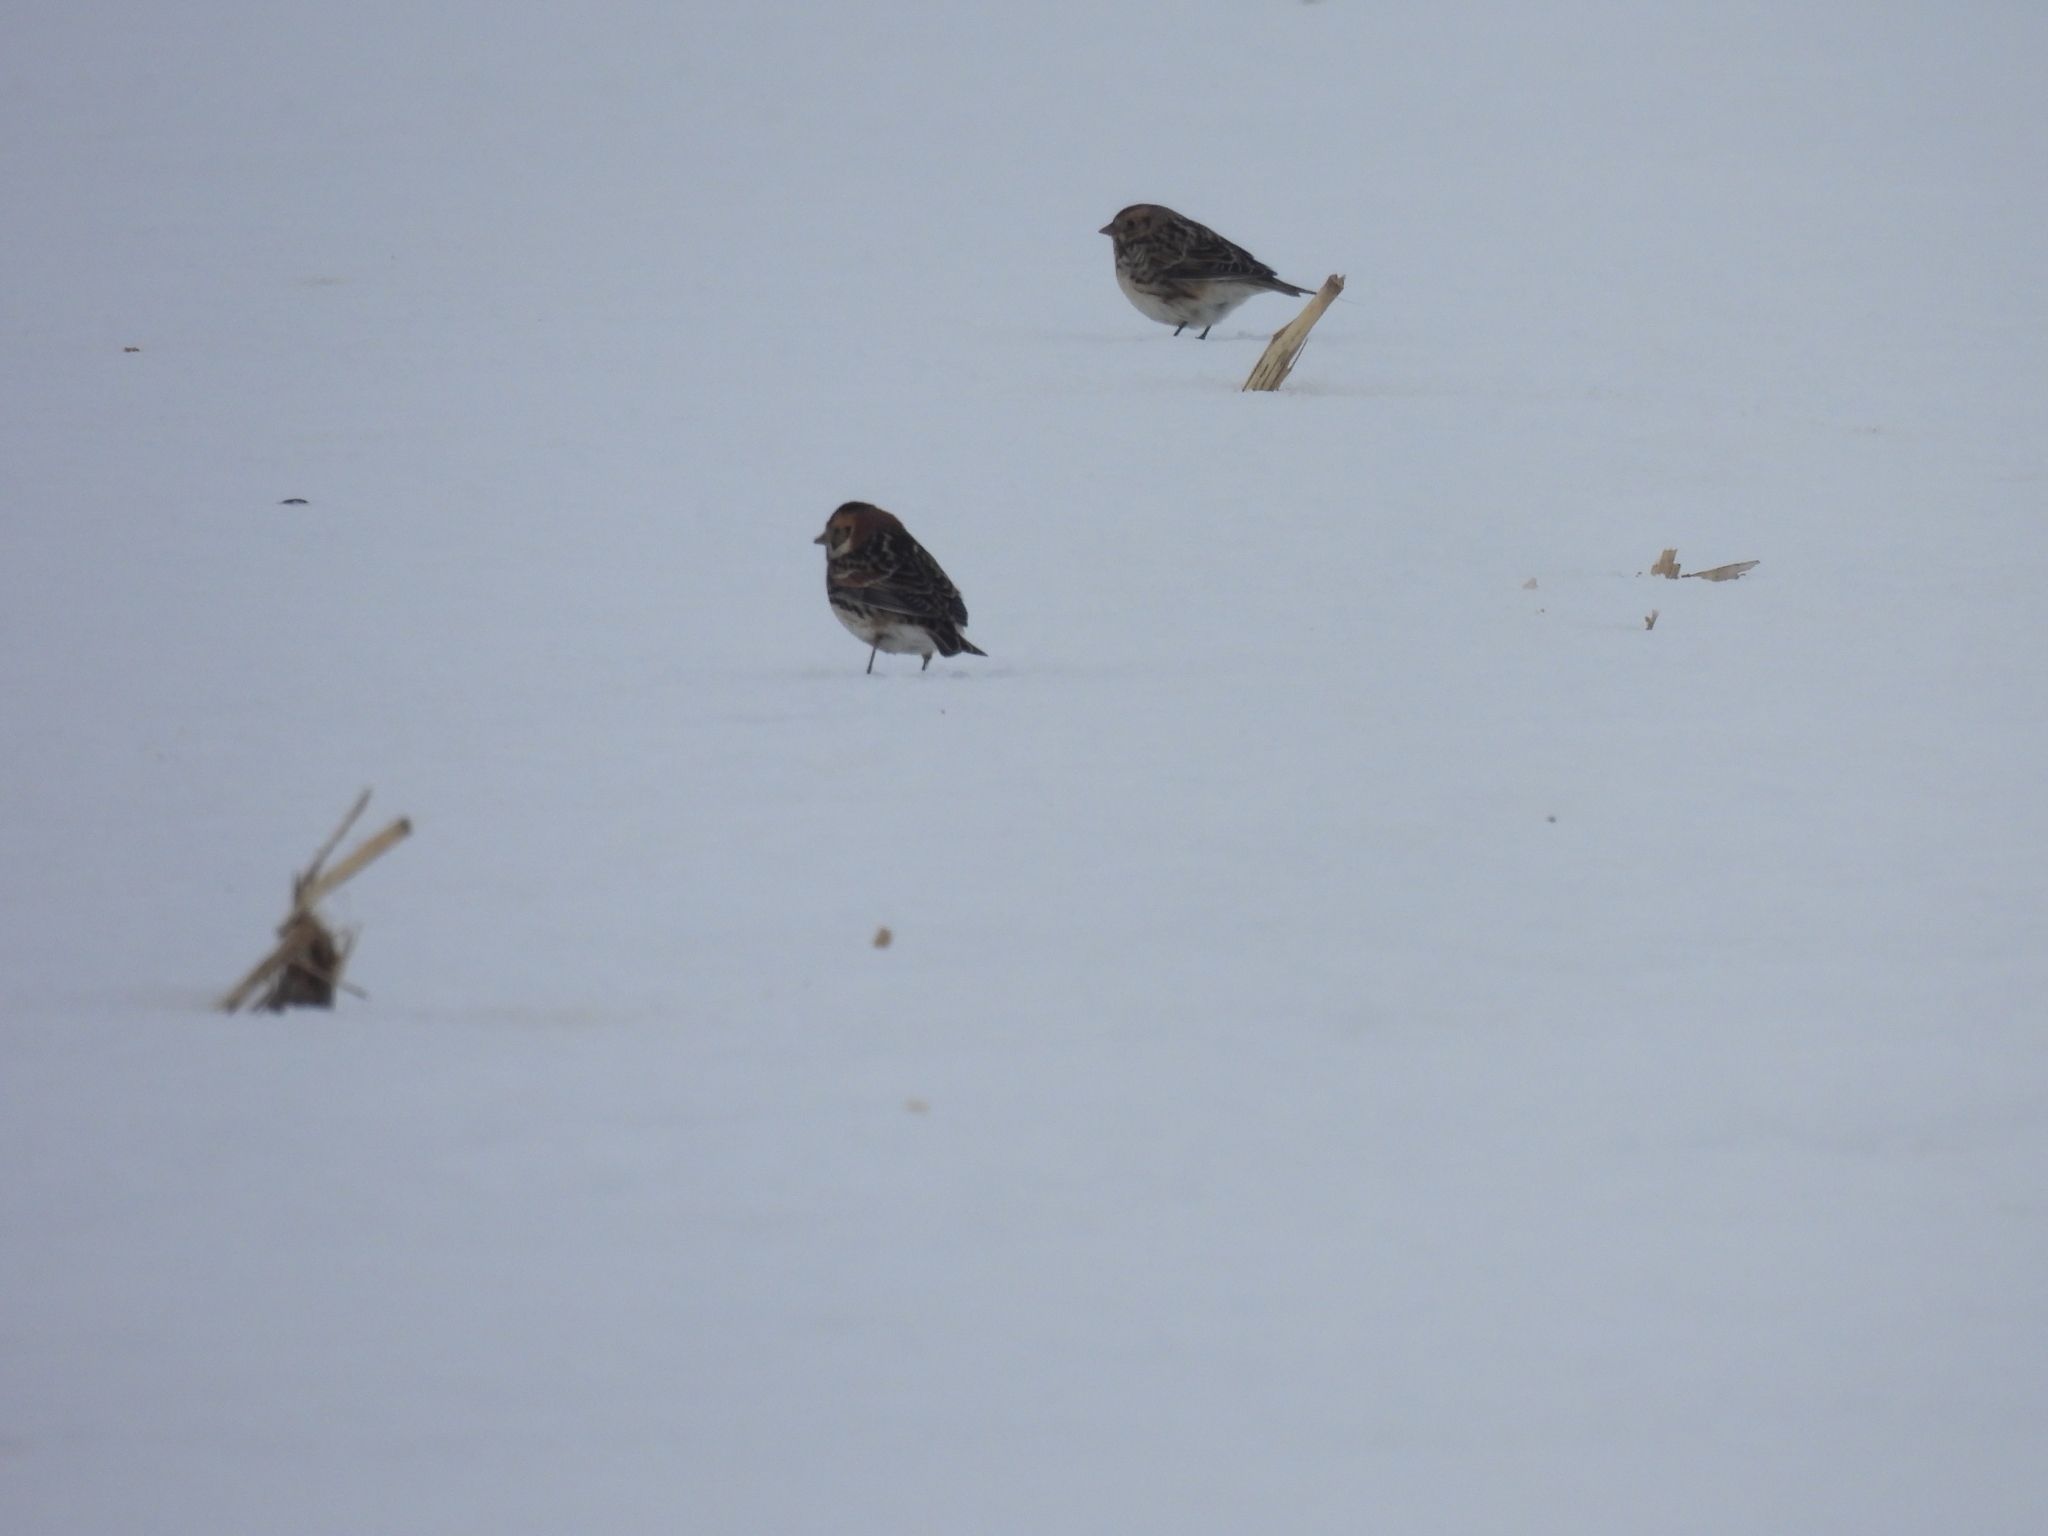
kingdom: Animalia
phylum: Chordata
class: Aves
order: Passeriformes
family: Calcariidae
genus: Calcarius
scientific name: Calcarius lapponicus
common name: Lapland longspur
